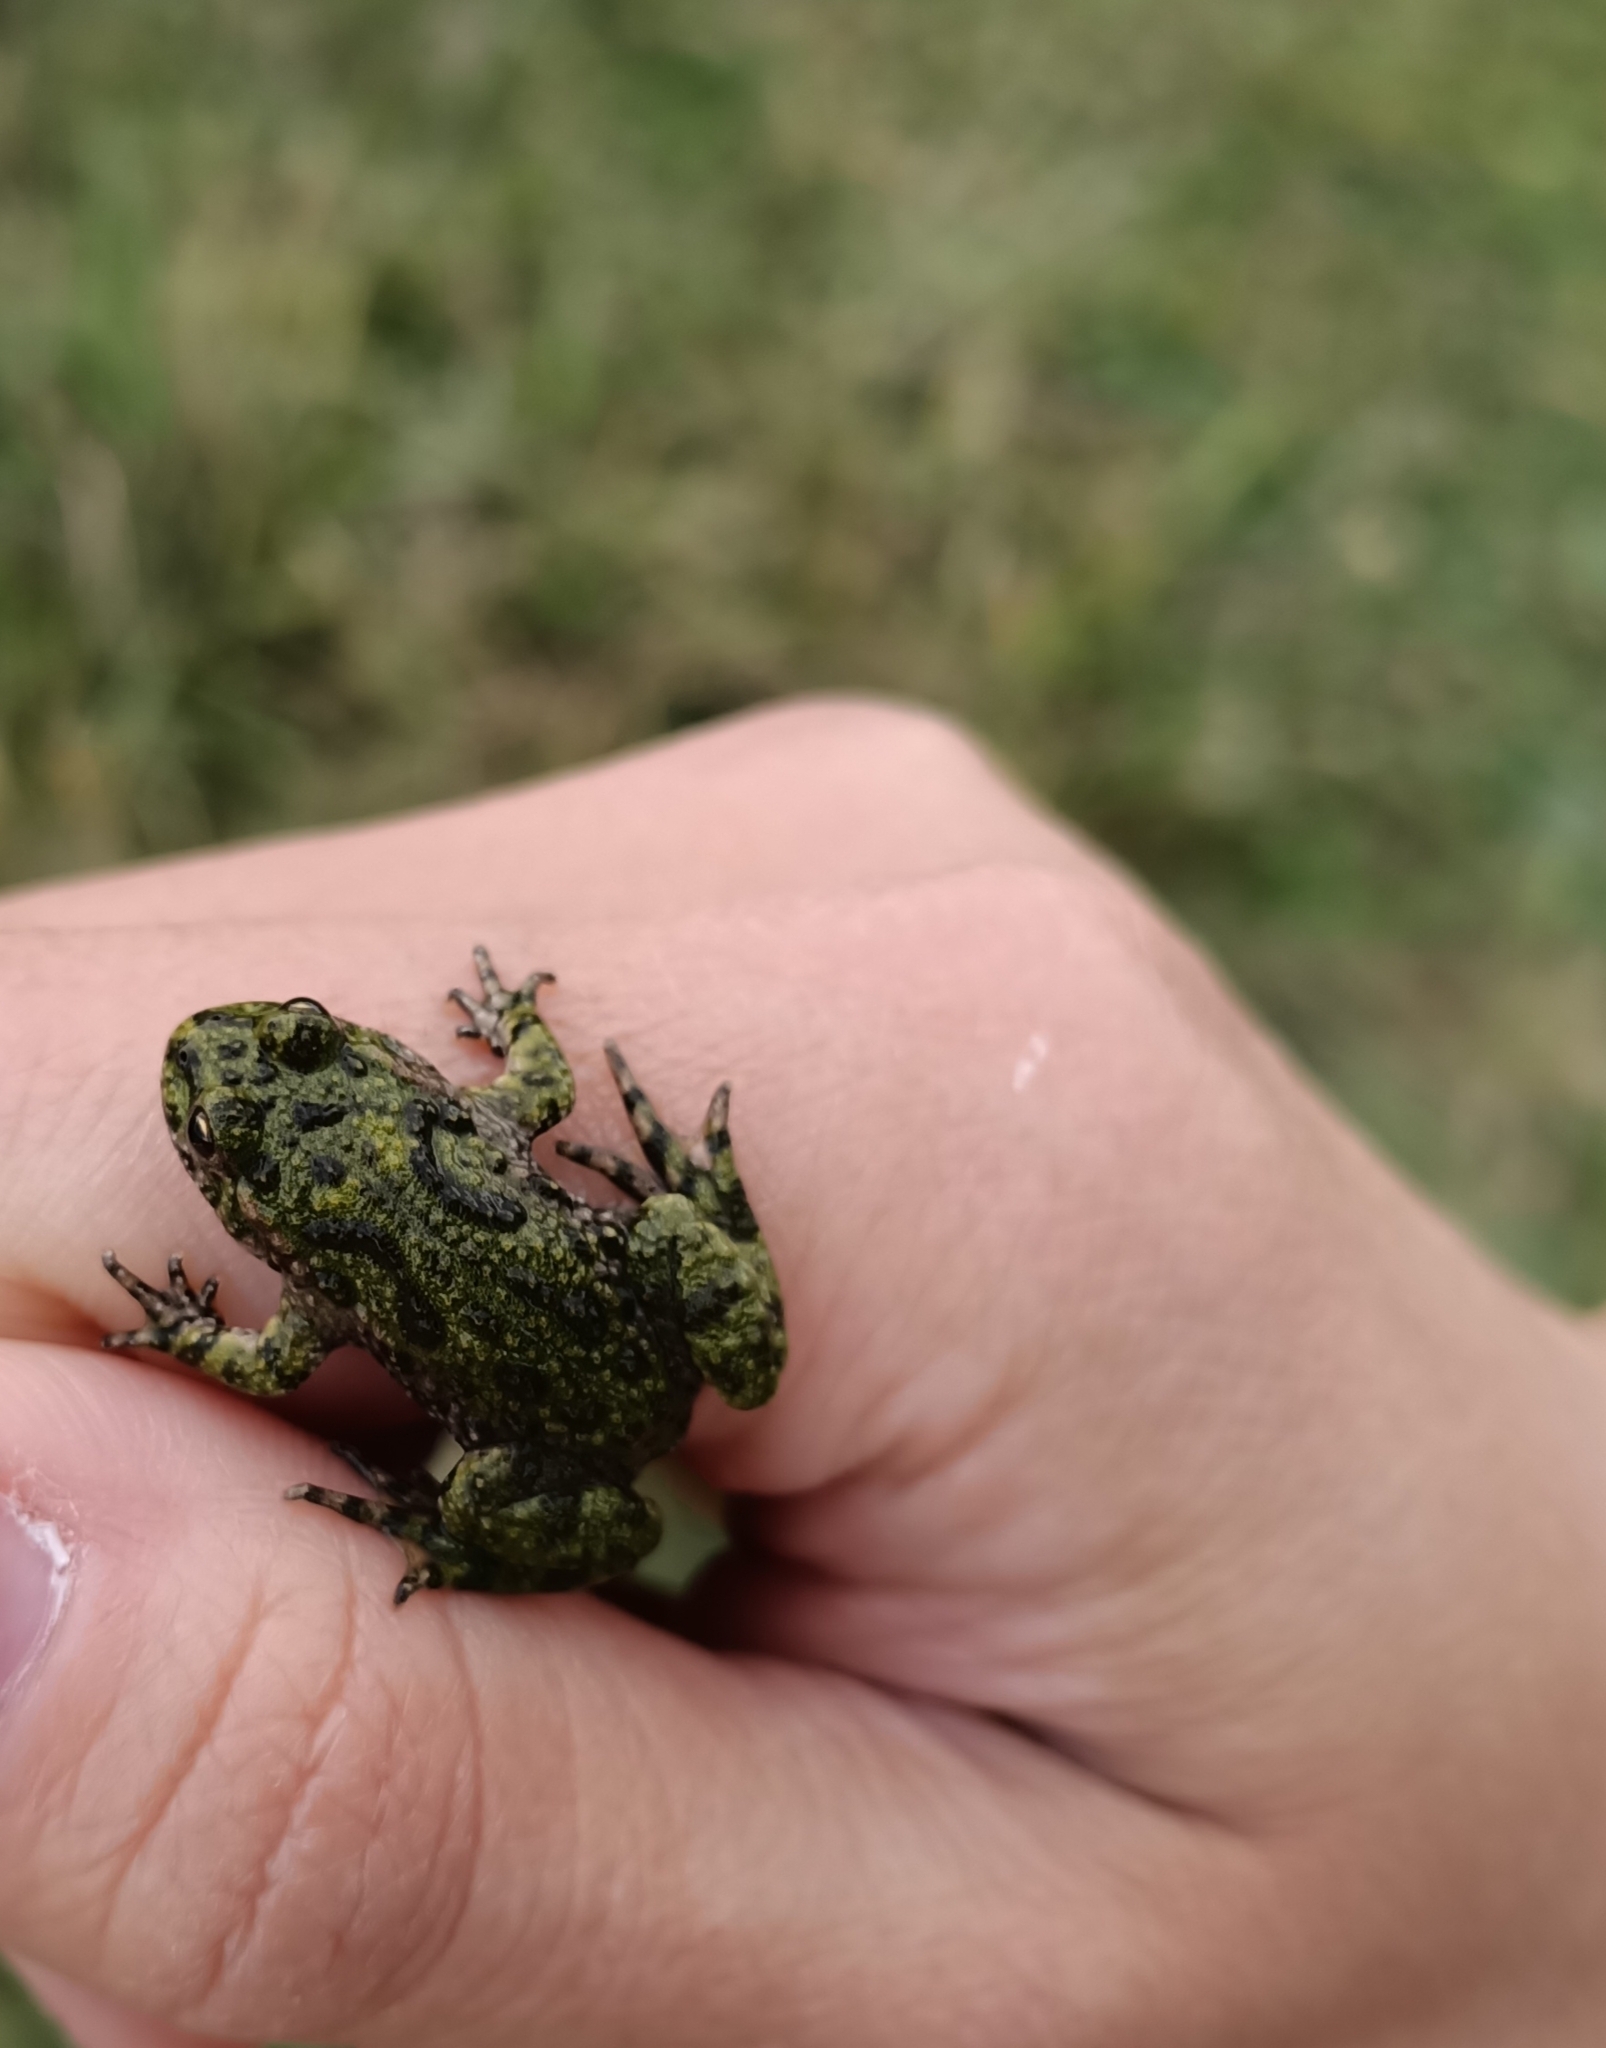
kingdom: Animalia
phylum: Chordata
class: Amphibia
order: Anura
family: Bombinatoridae
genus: Bombina
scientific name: Bombina bombina
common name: Fire-bellied toad
